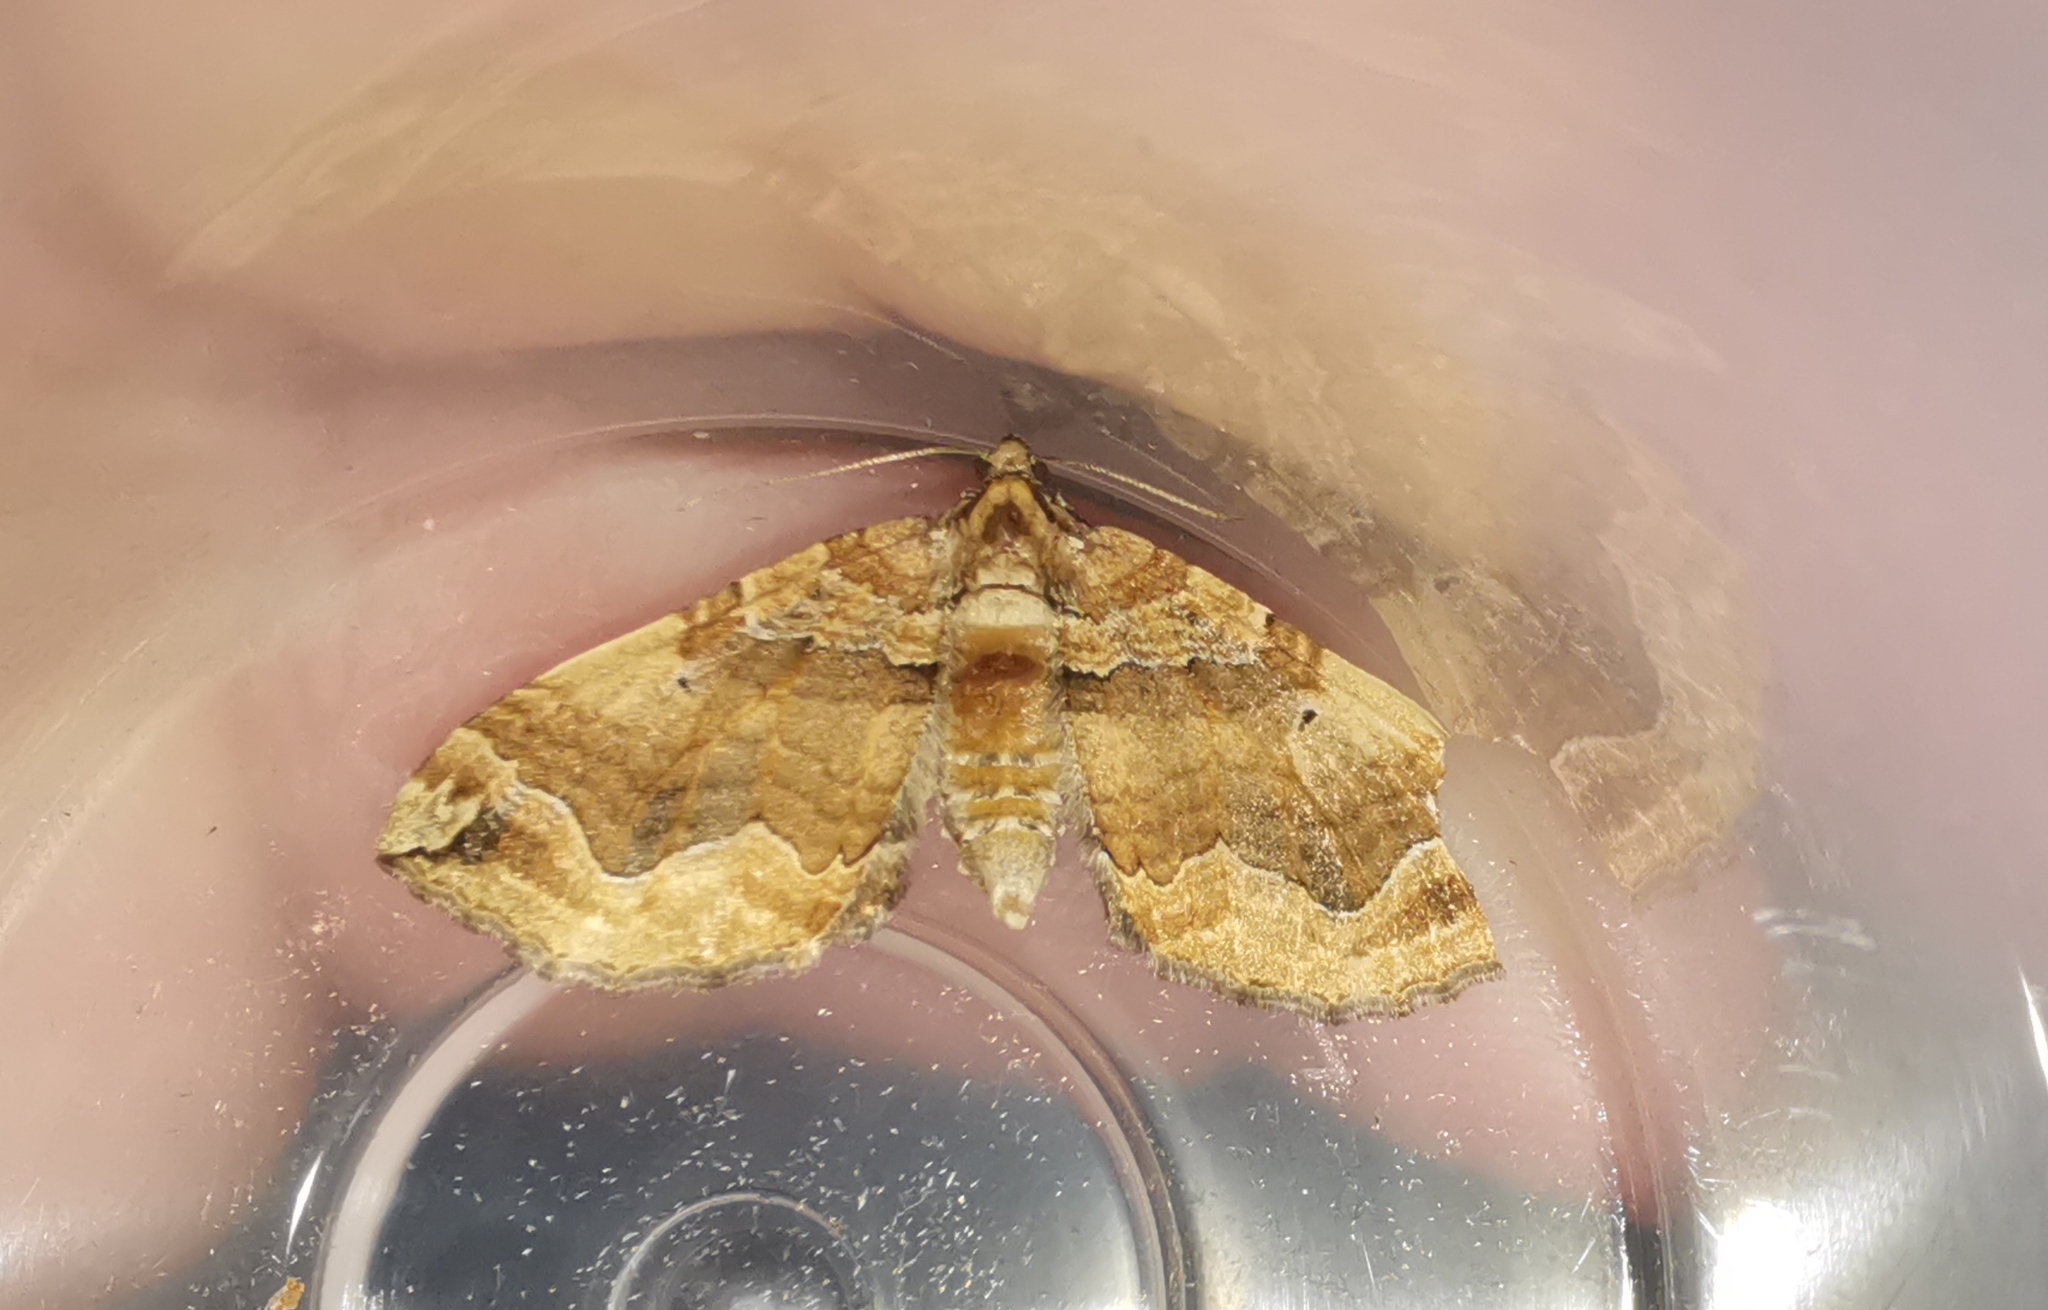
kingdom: Animalia
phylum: Arthropoda
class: Insecta
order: Lepidoptera
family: Geometridae
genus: Pelurga
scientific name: Pelurga comitata
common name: Dark spinach
